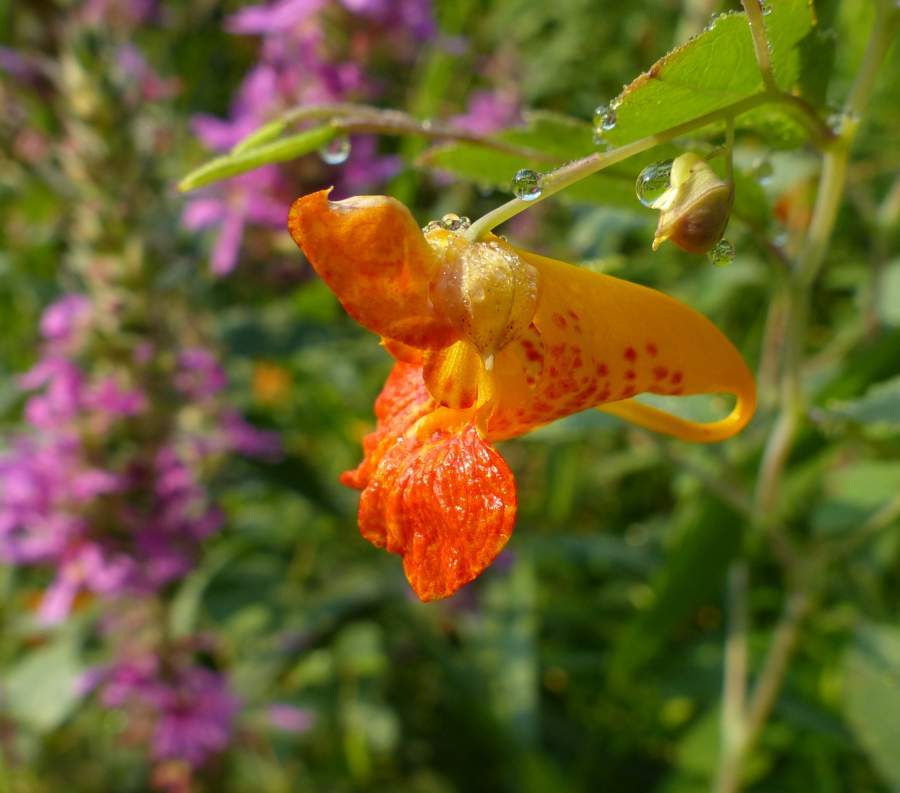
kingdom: Plantae
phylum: Tracheophyta
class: Magnoliopsida
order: Ericales
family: Balsaminaceae
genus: Impatiens
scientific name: Impatiens capensis
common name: Orange balsam
